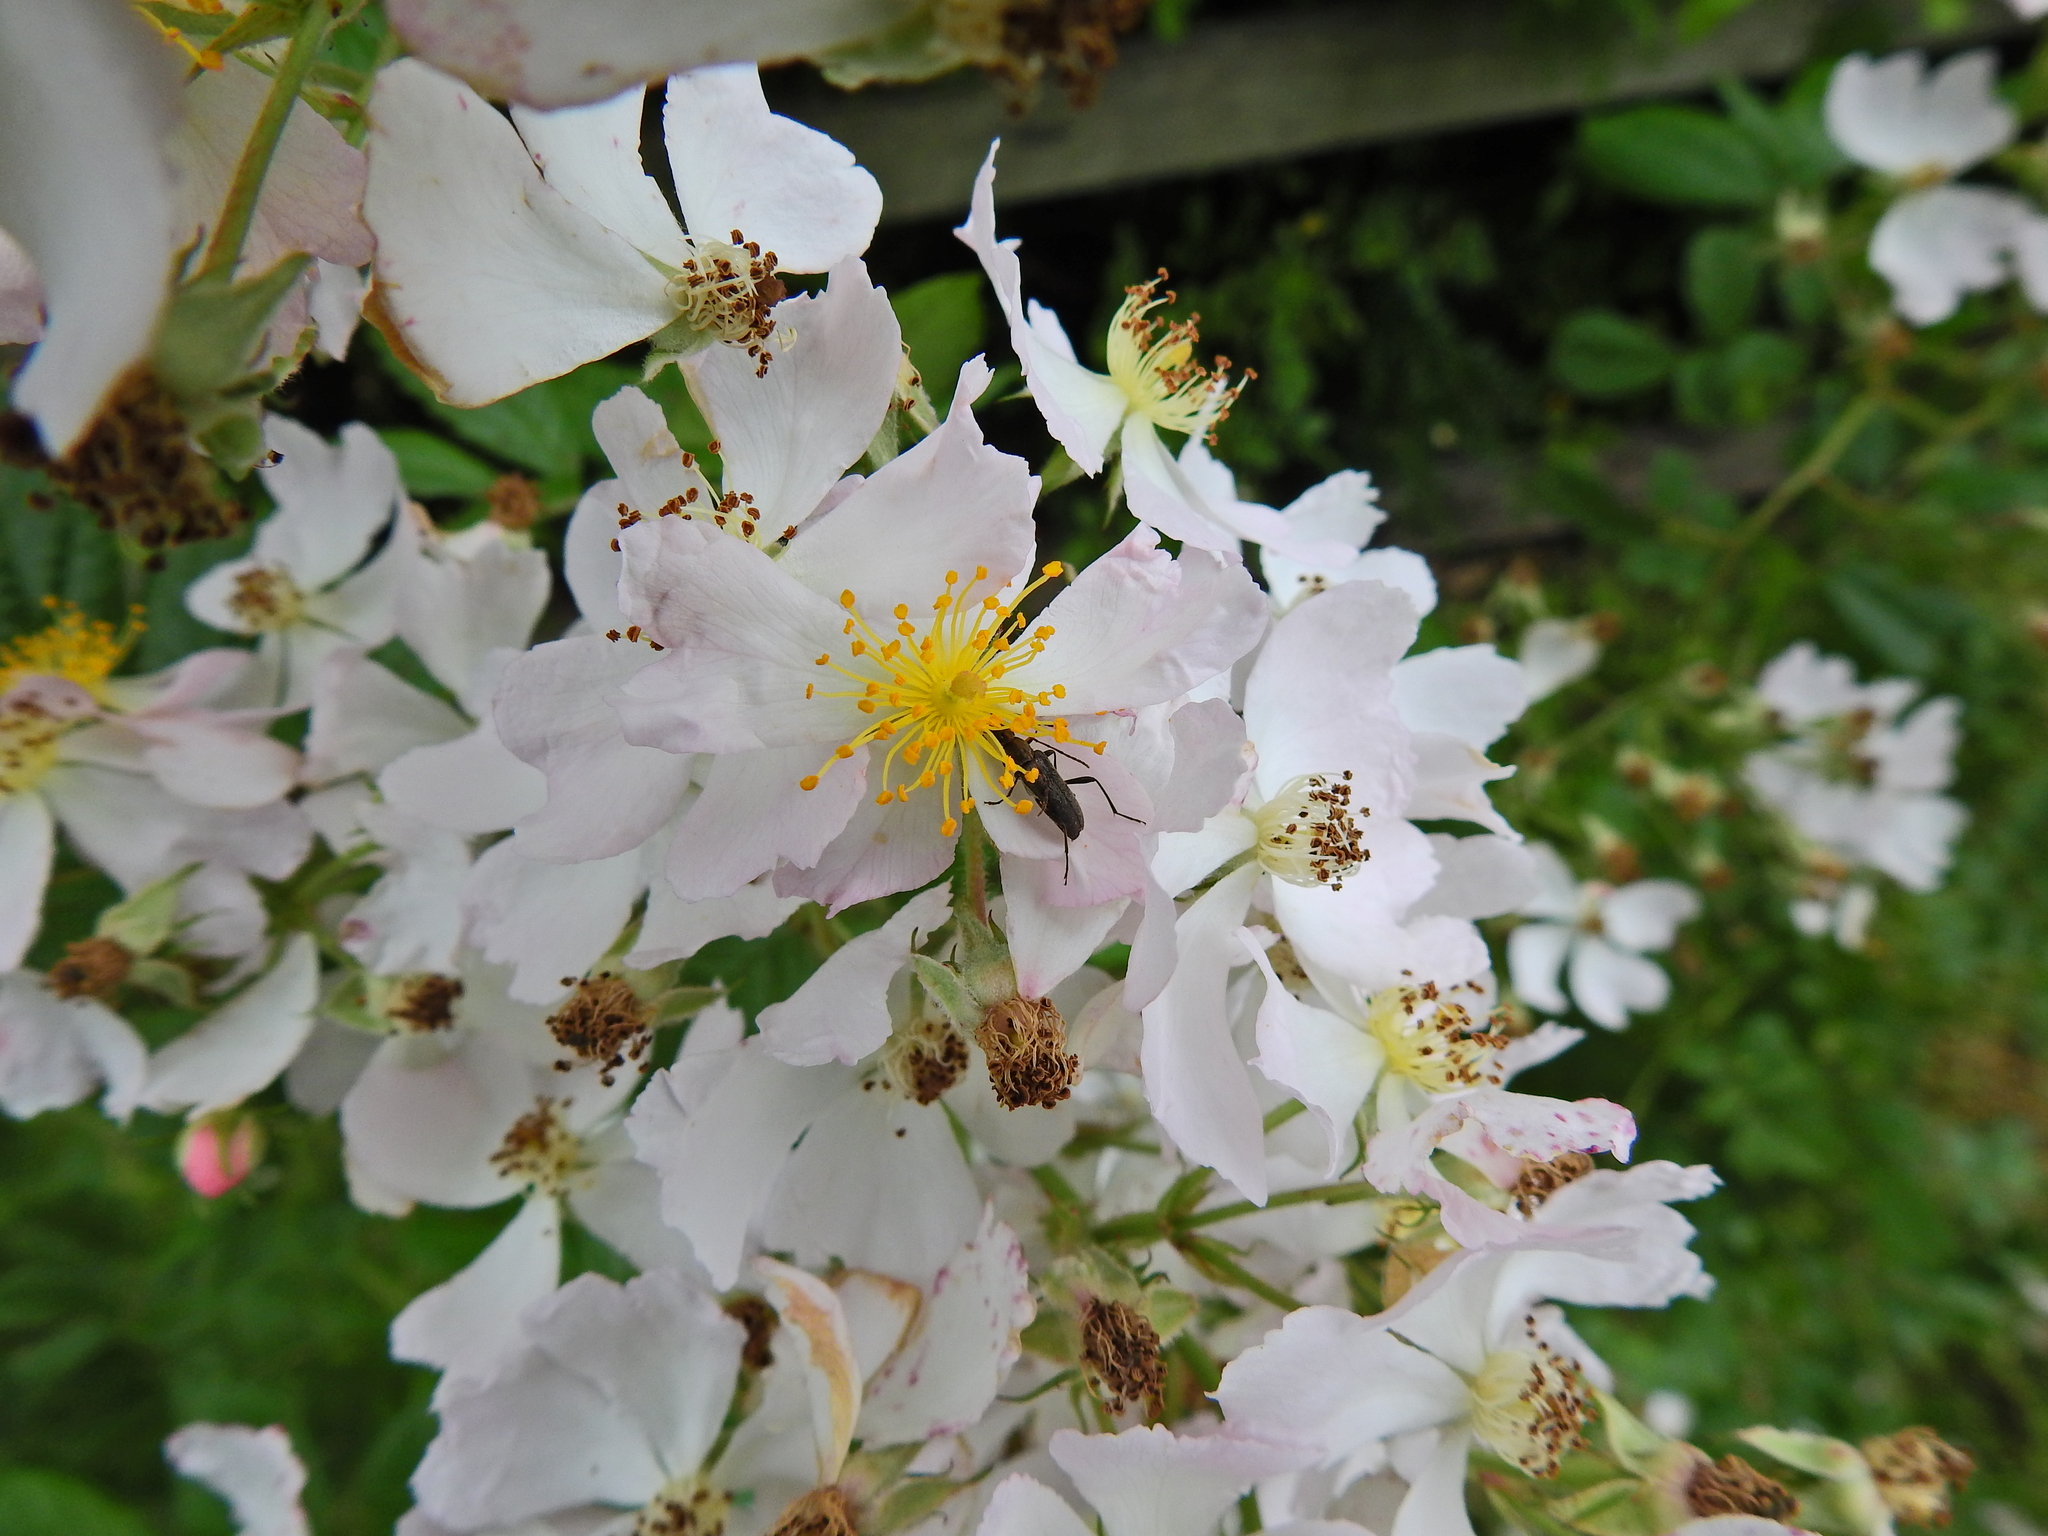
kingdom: Animalia
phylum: Arthropoda
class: Insecta
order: Coleoptera
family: Cerambycidae
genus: Grammoptera
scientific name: Grammoptera ruficornis
